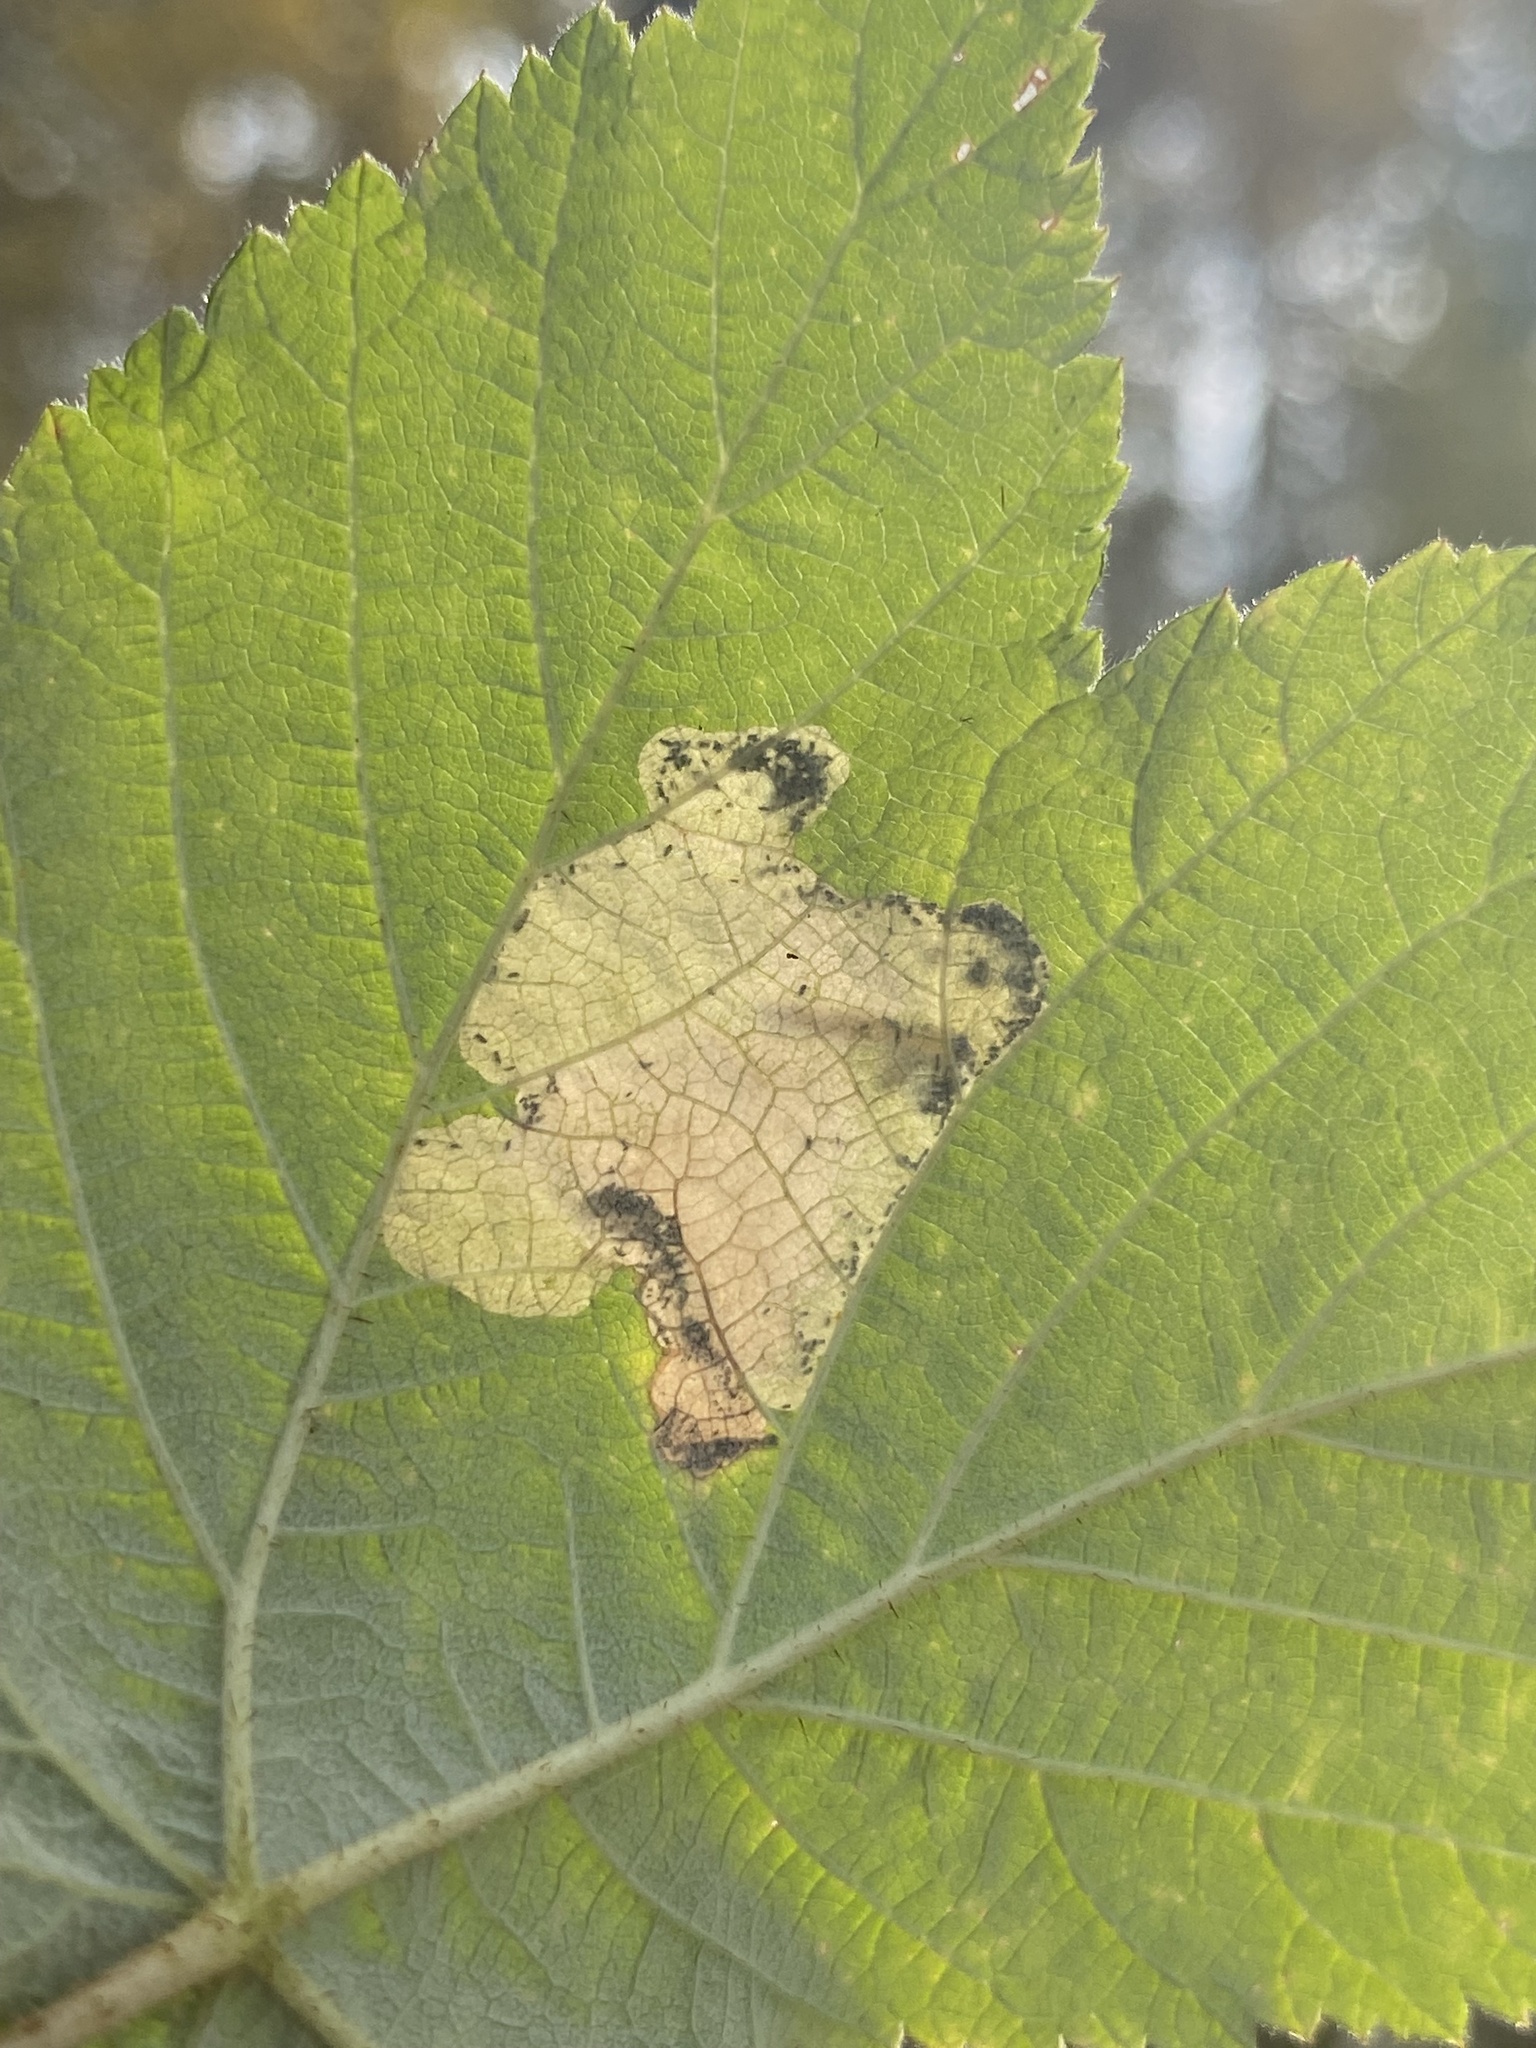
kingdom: Animalia
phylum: Arthropoda
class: Insecta
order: Hymenoptera
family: Tenthredinidae
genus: Metallus
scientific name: Metallus capitalis
